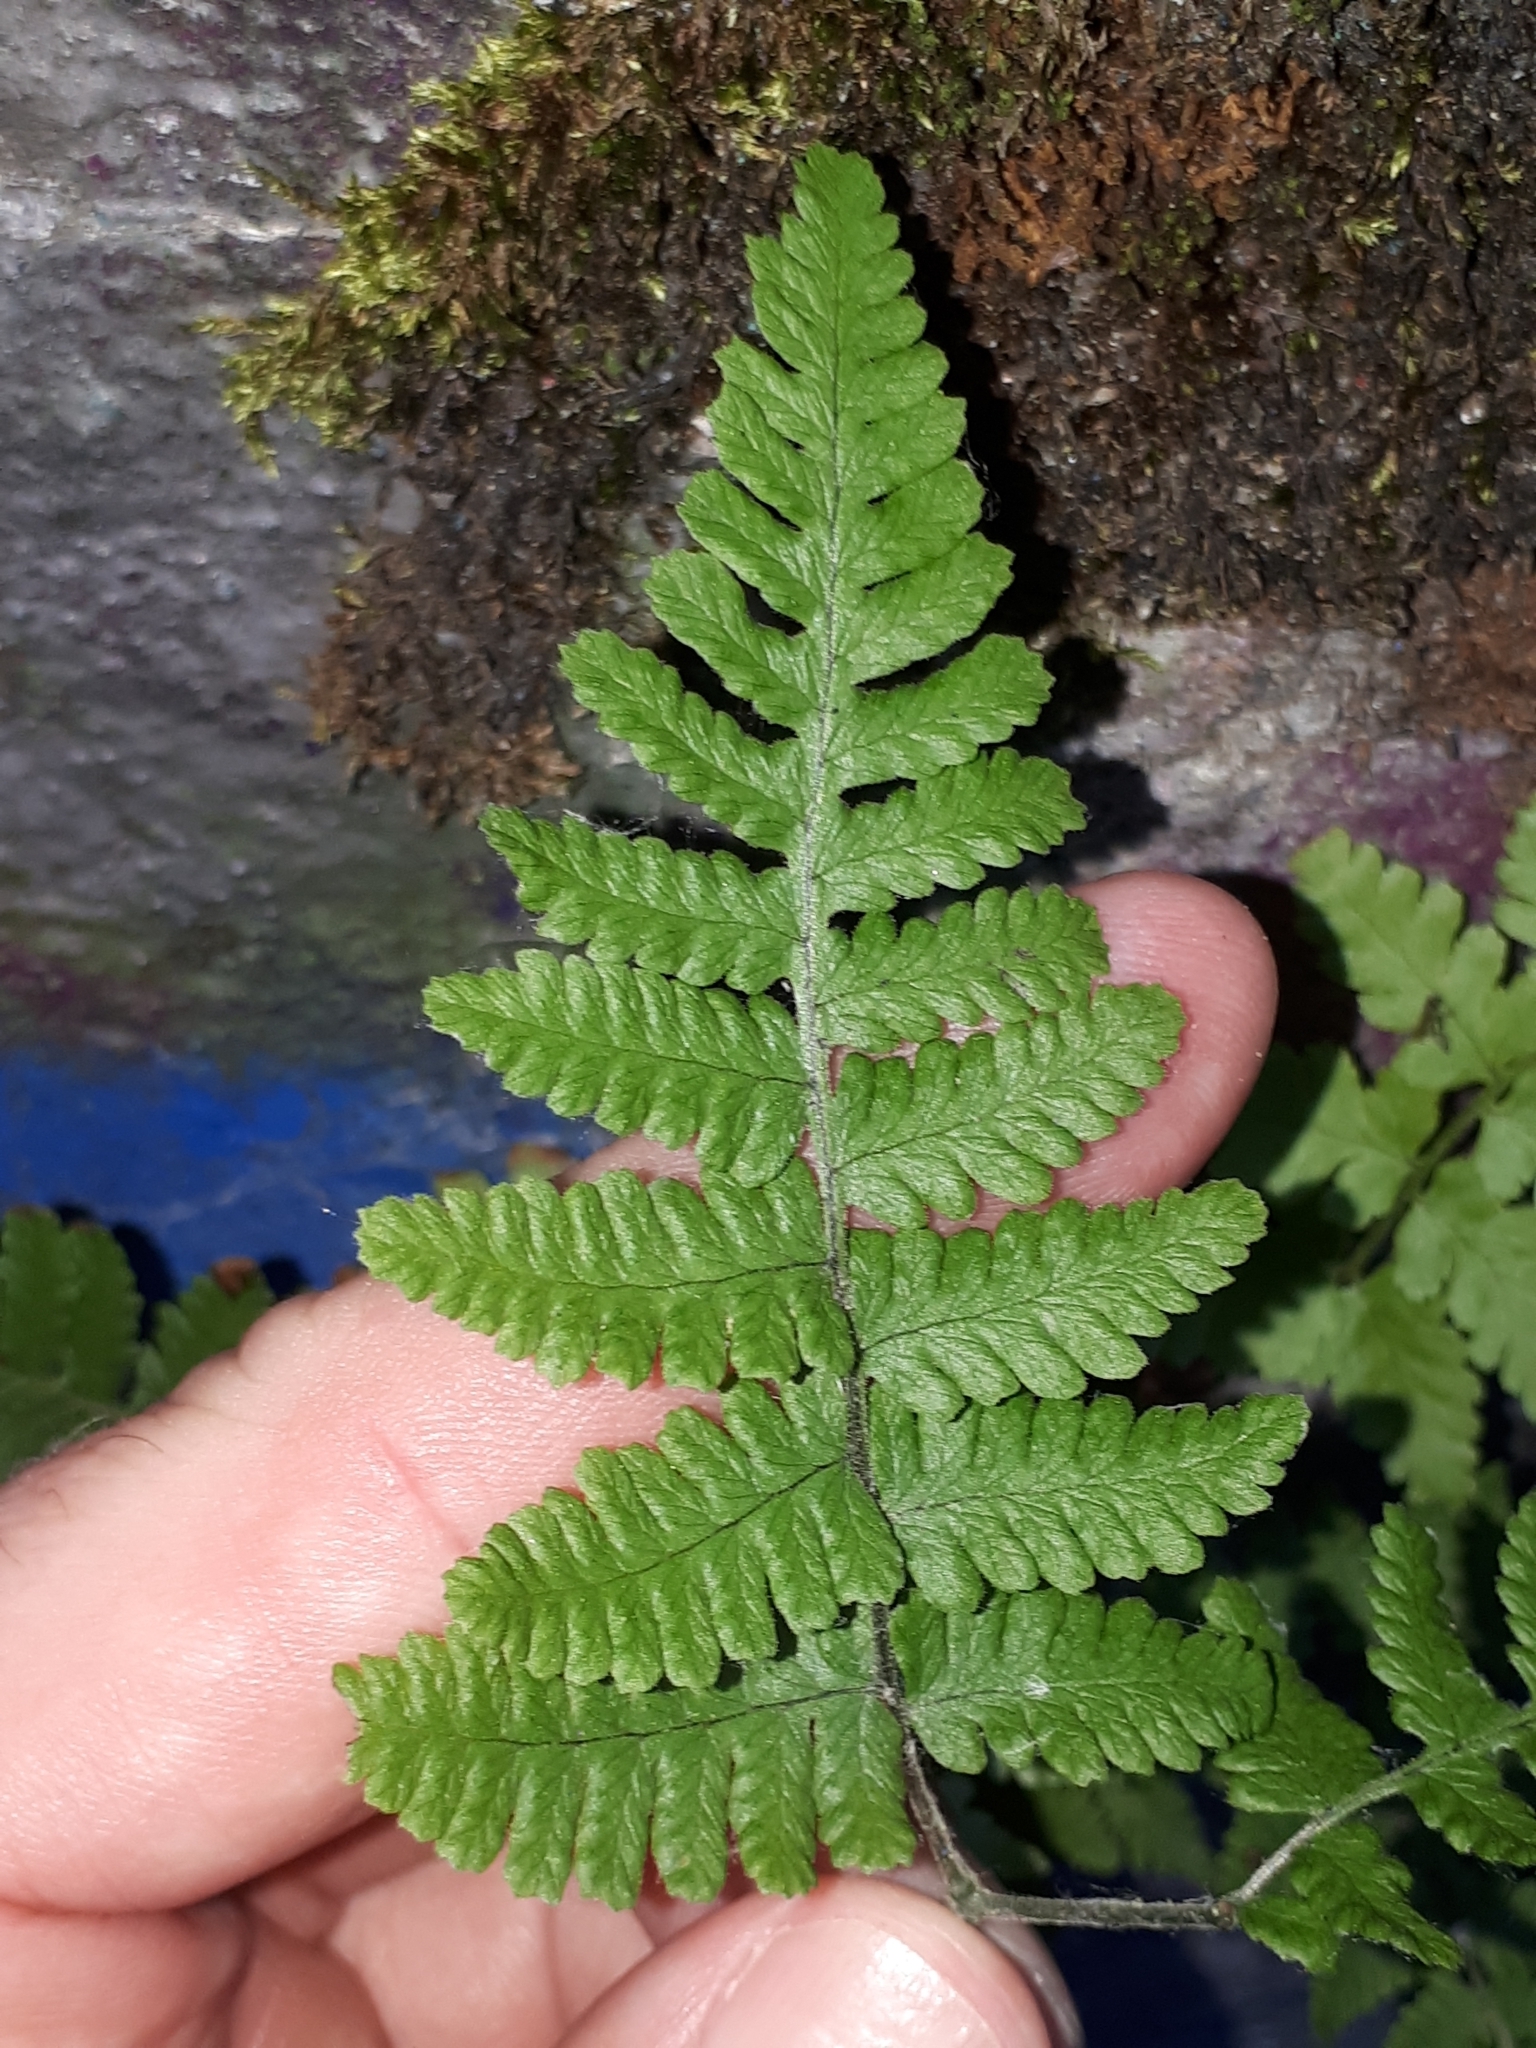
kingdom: Plantae
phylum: Tracheophyta
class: Polypodiopsida
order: Polypodiales
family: Cystopteridaceae
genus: Gymnocarpium
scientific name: Gymnocarpium robertianum
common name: Limestone fern
